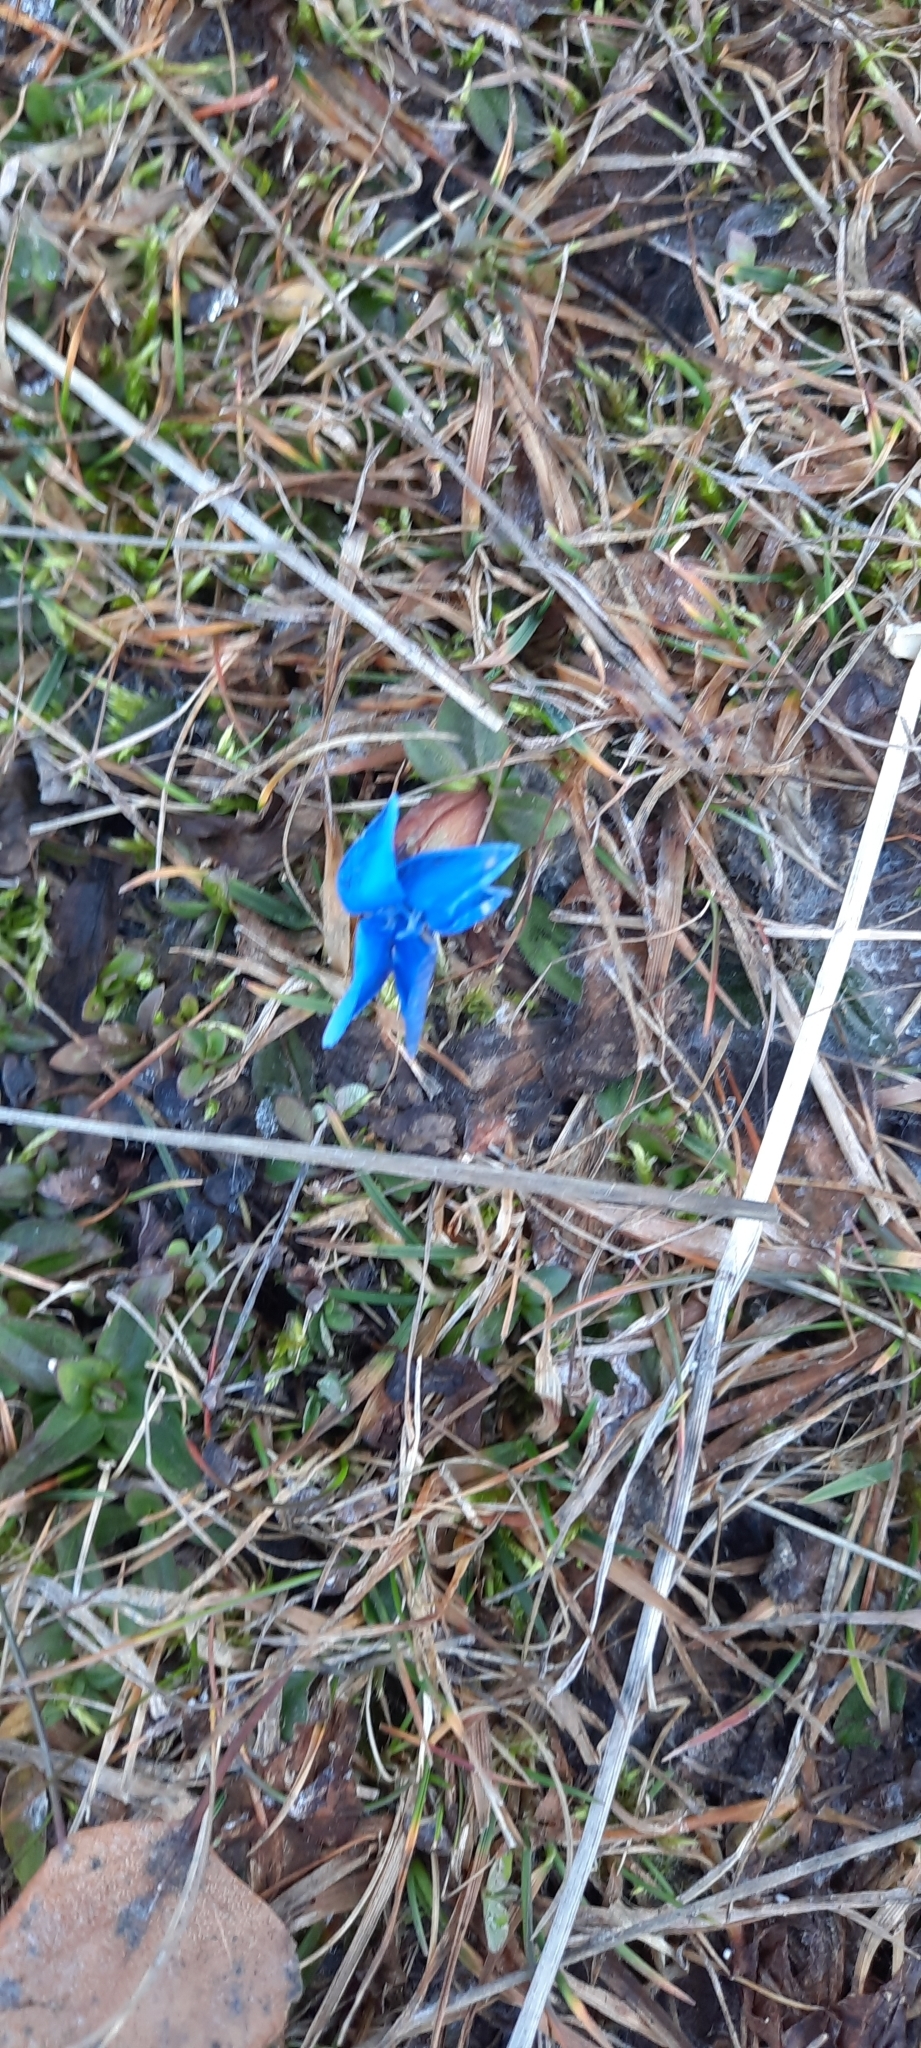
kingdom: Plantae
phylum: Tracheophyta
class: Magnoliopsida
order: Gentianales
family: Gentianaceae
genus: Gentiana
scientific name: Gentiana verna
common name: Spring gentian
